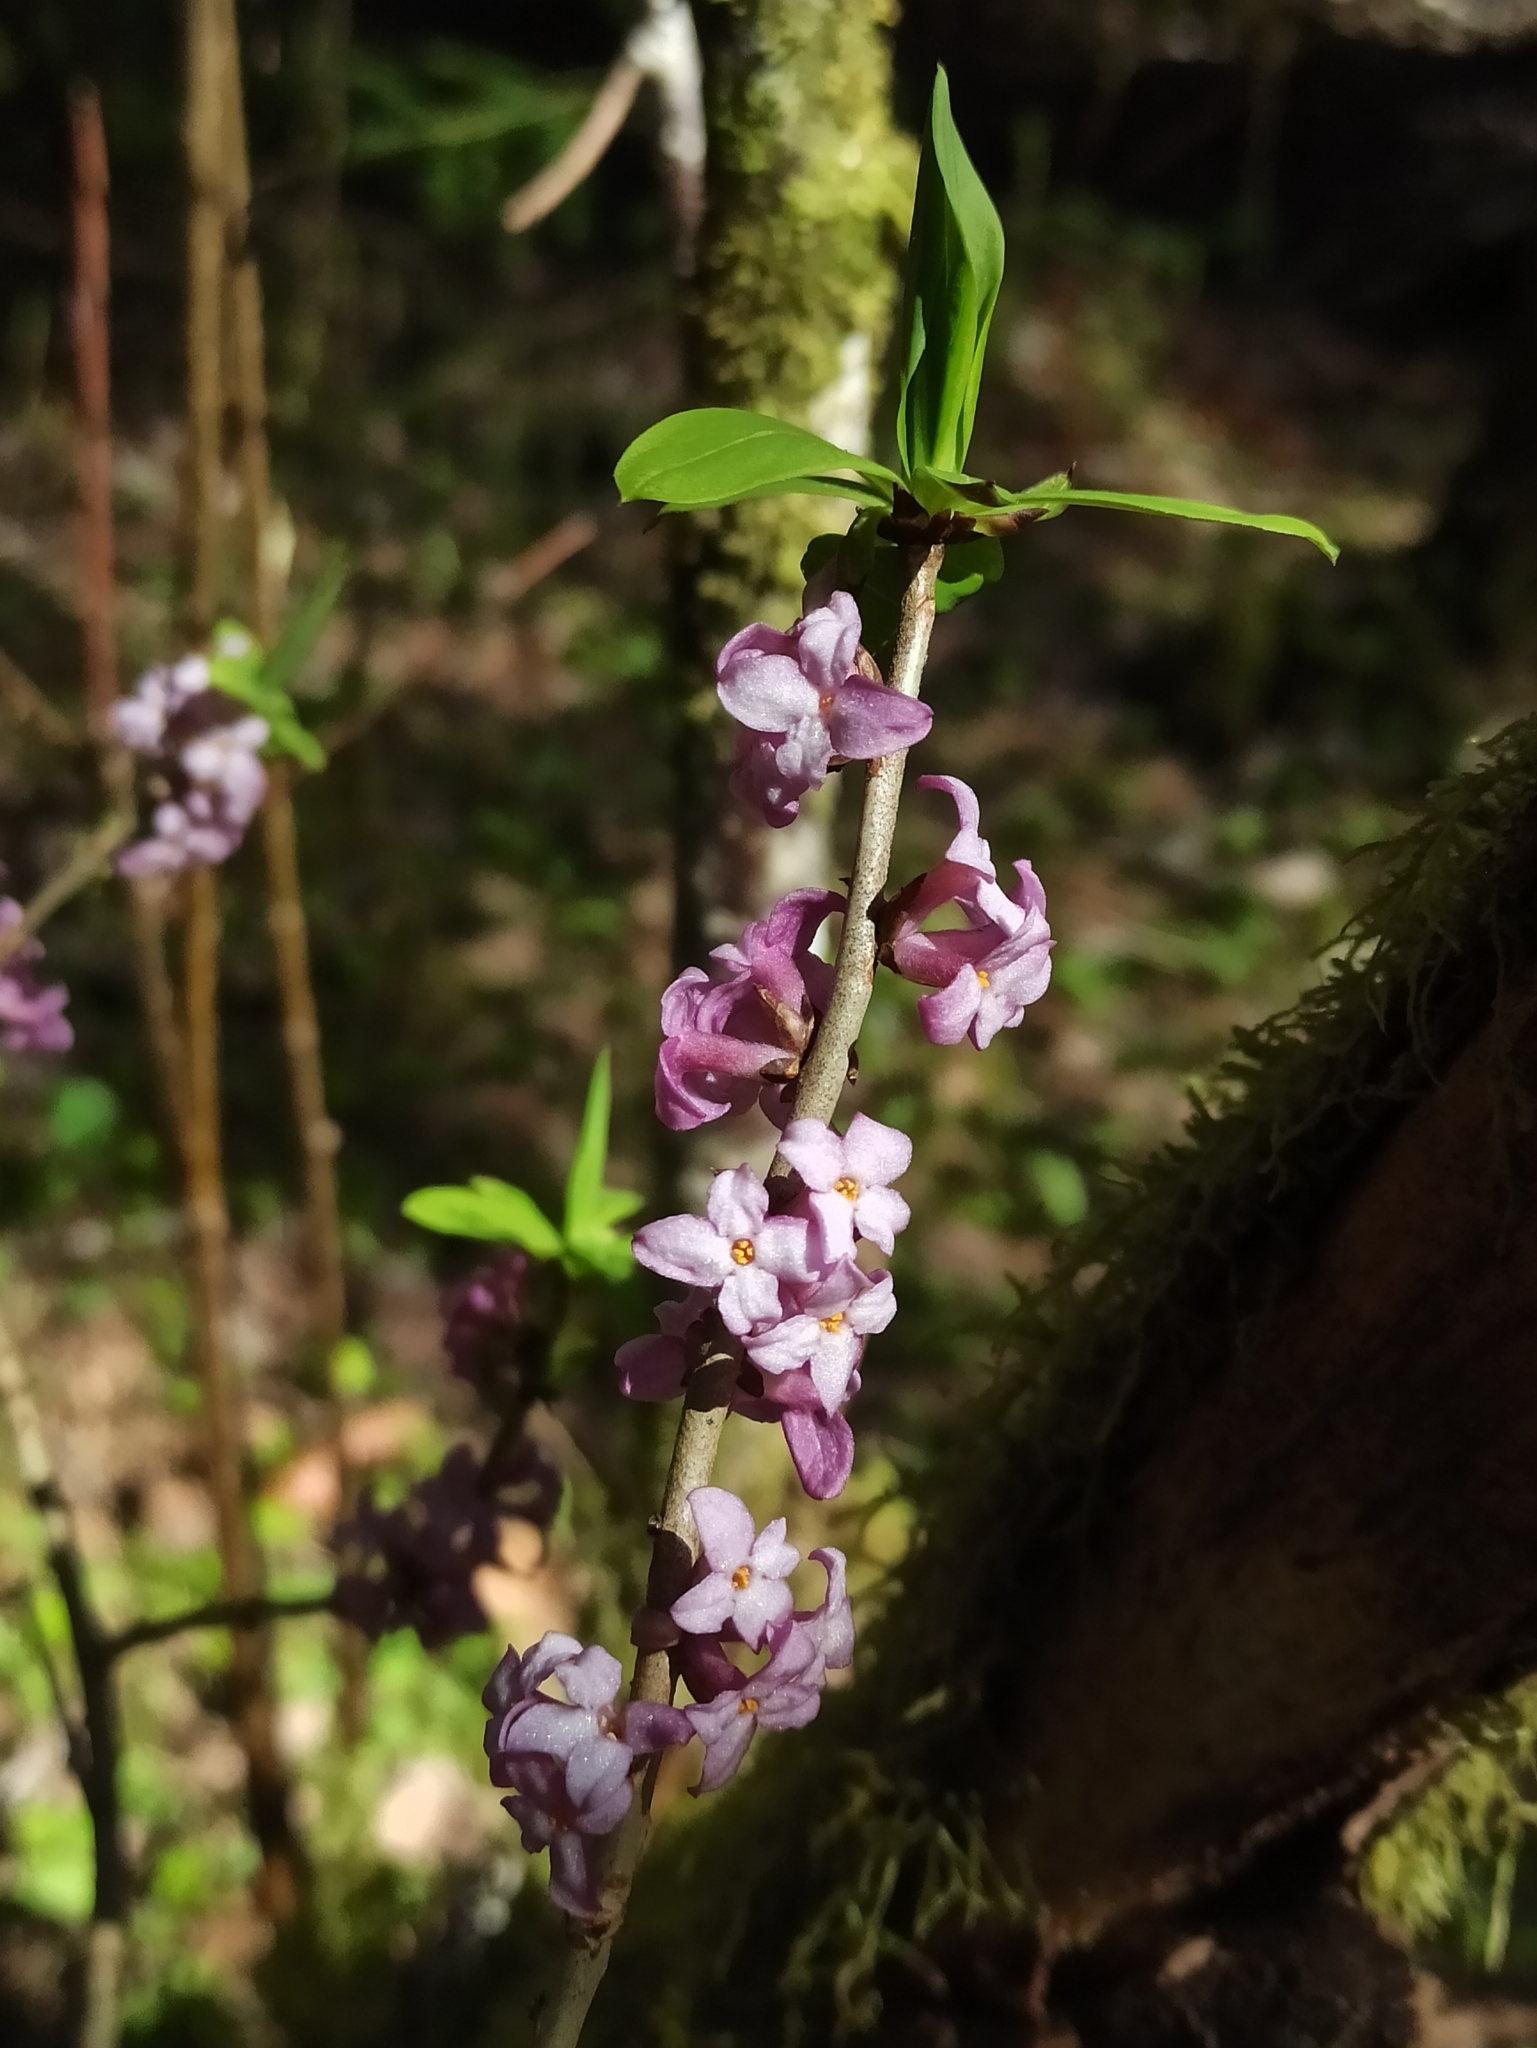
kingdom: Plantae
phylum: Tracheophyta
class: Magnoliopsida
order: Malvales
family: Thymelaeaceae
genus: Daphne
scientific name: Daphne mezereum
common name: Mezereon
